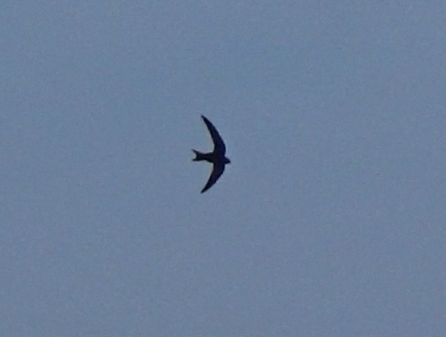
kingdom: Animalia
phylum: Chordata
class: Aves
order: Apodiformes
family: Apodidae
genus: Apus
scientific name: Apus apus
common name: Common swift
